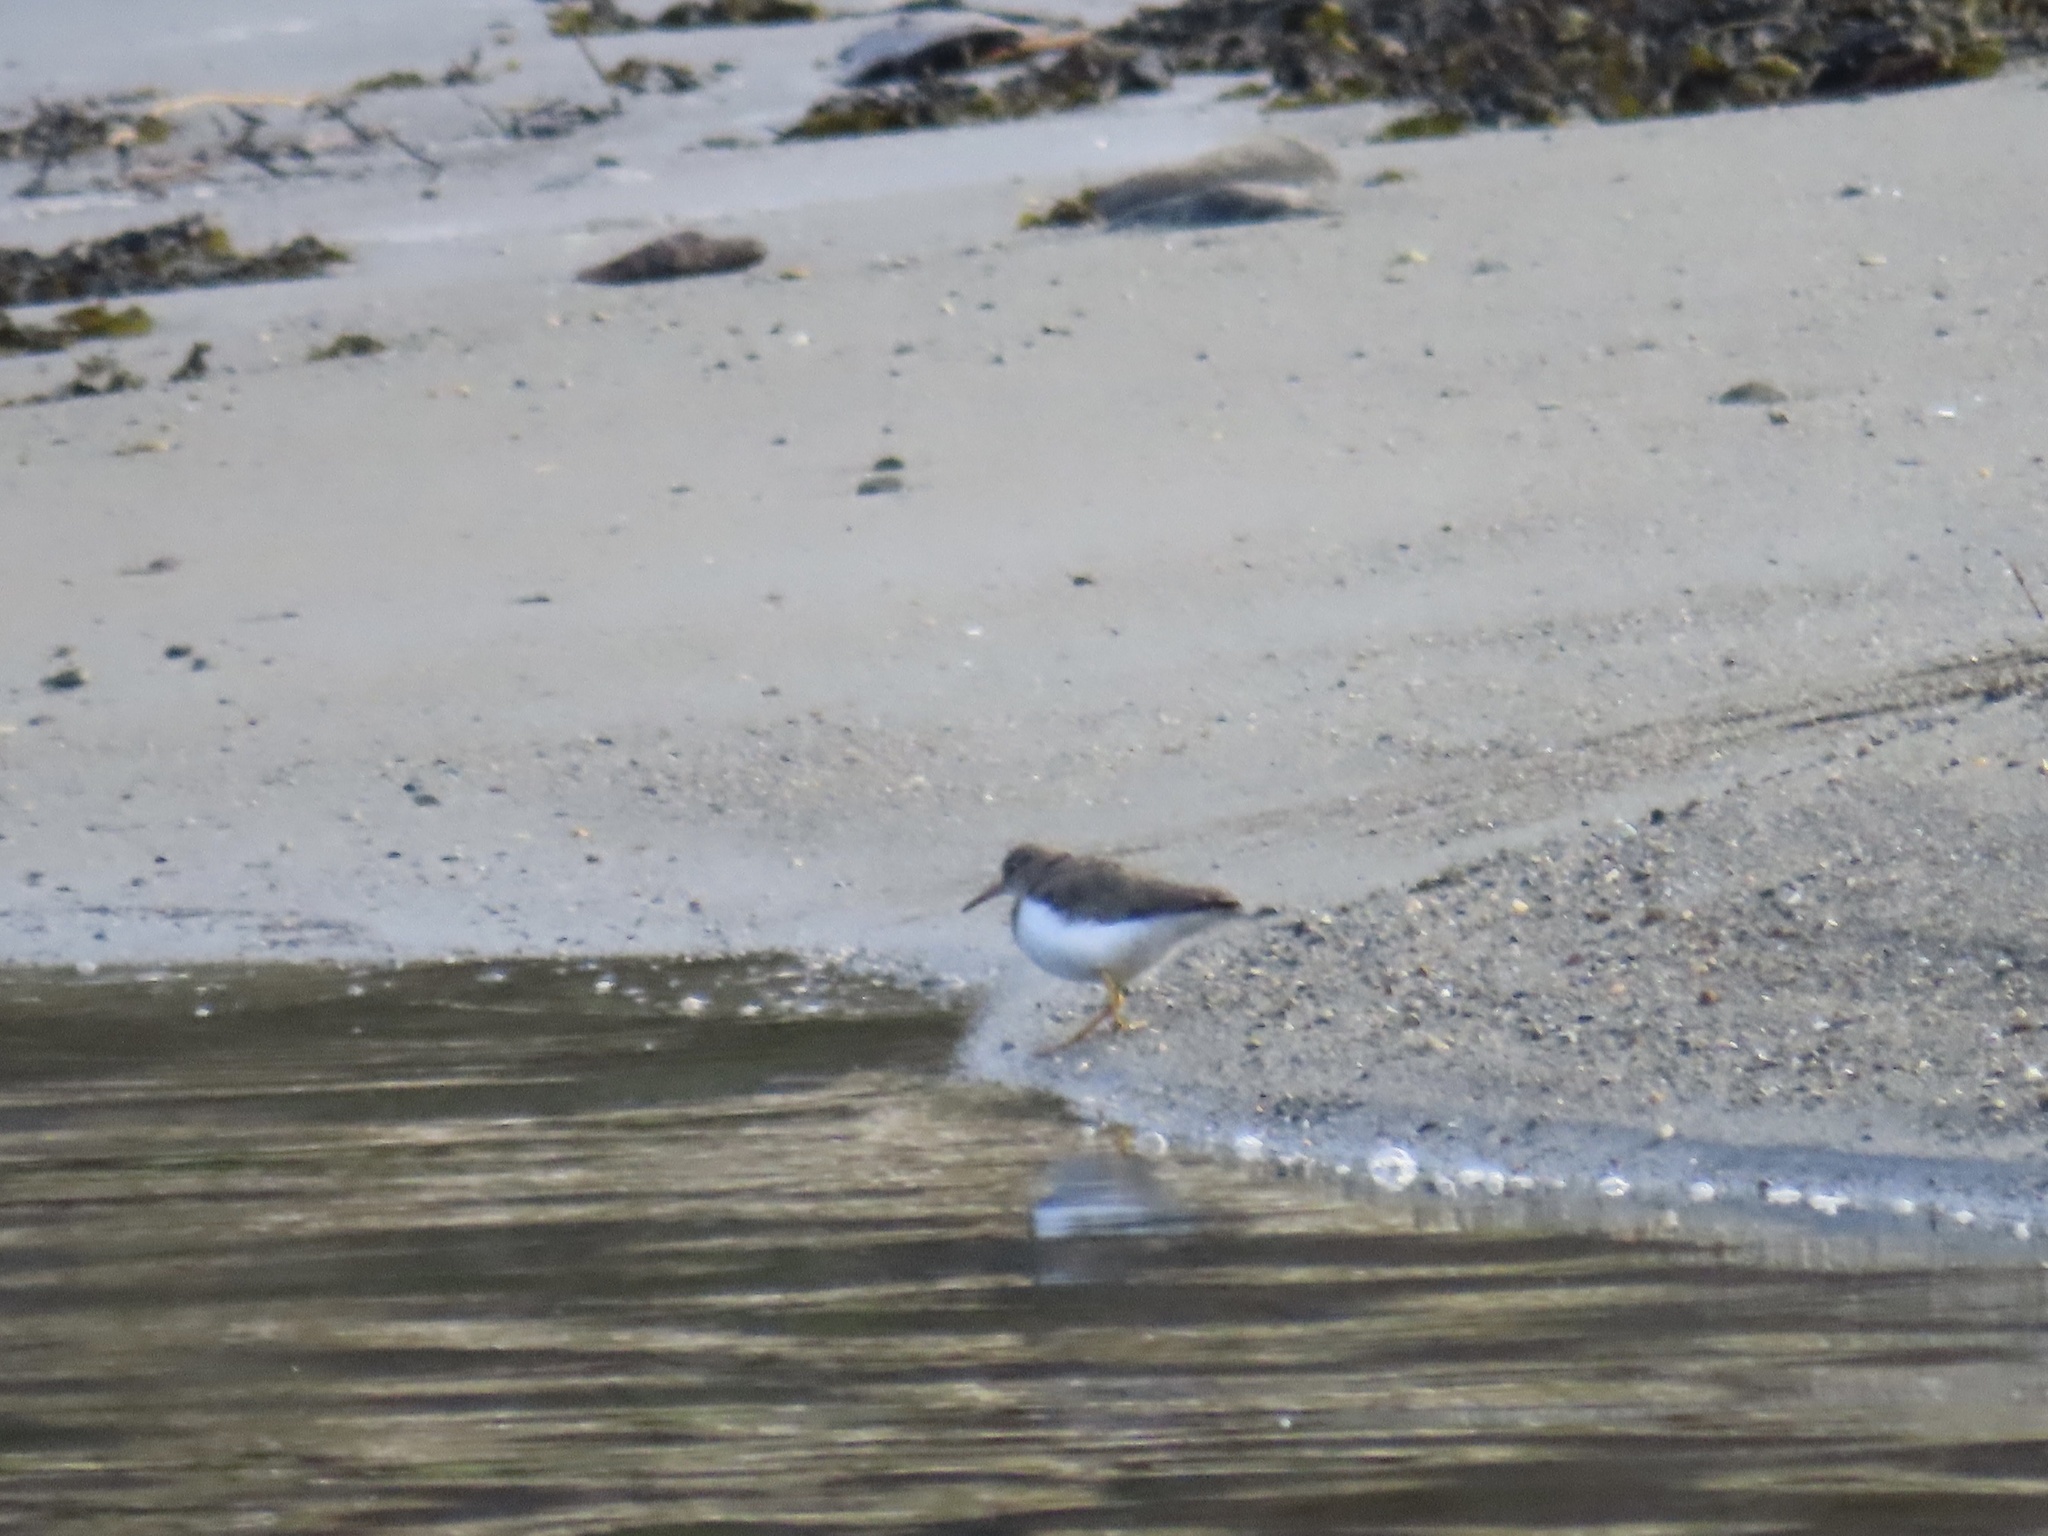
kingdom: Animalia
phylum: Chordata
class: Aves
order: Charadriiformes
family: Scolopacidae
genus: Actitis
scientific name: Actitis macularius
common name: Spotted sandpiper
